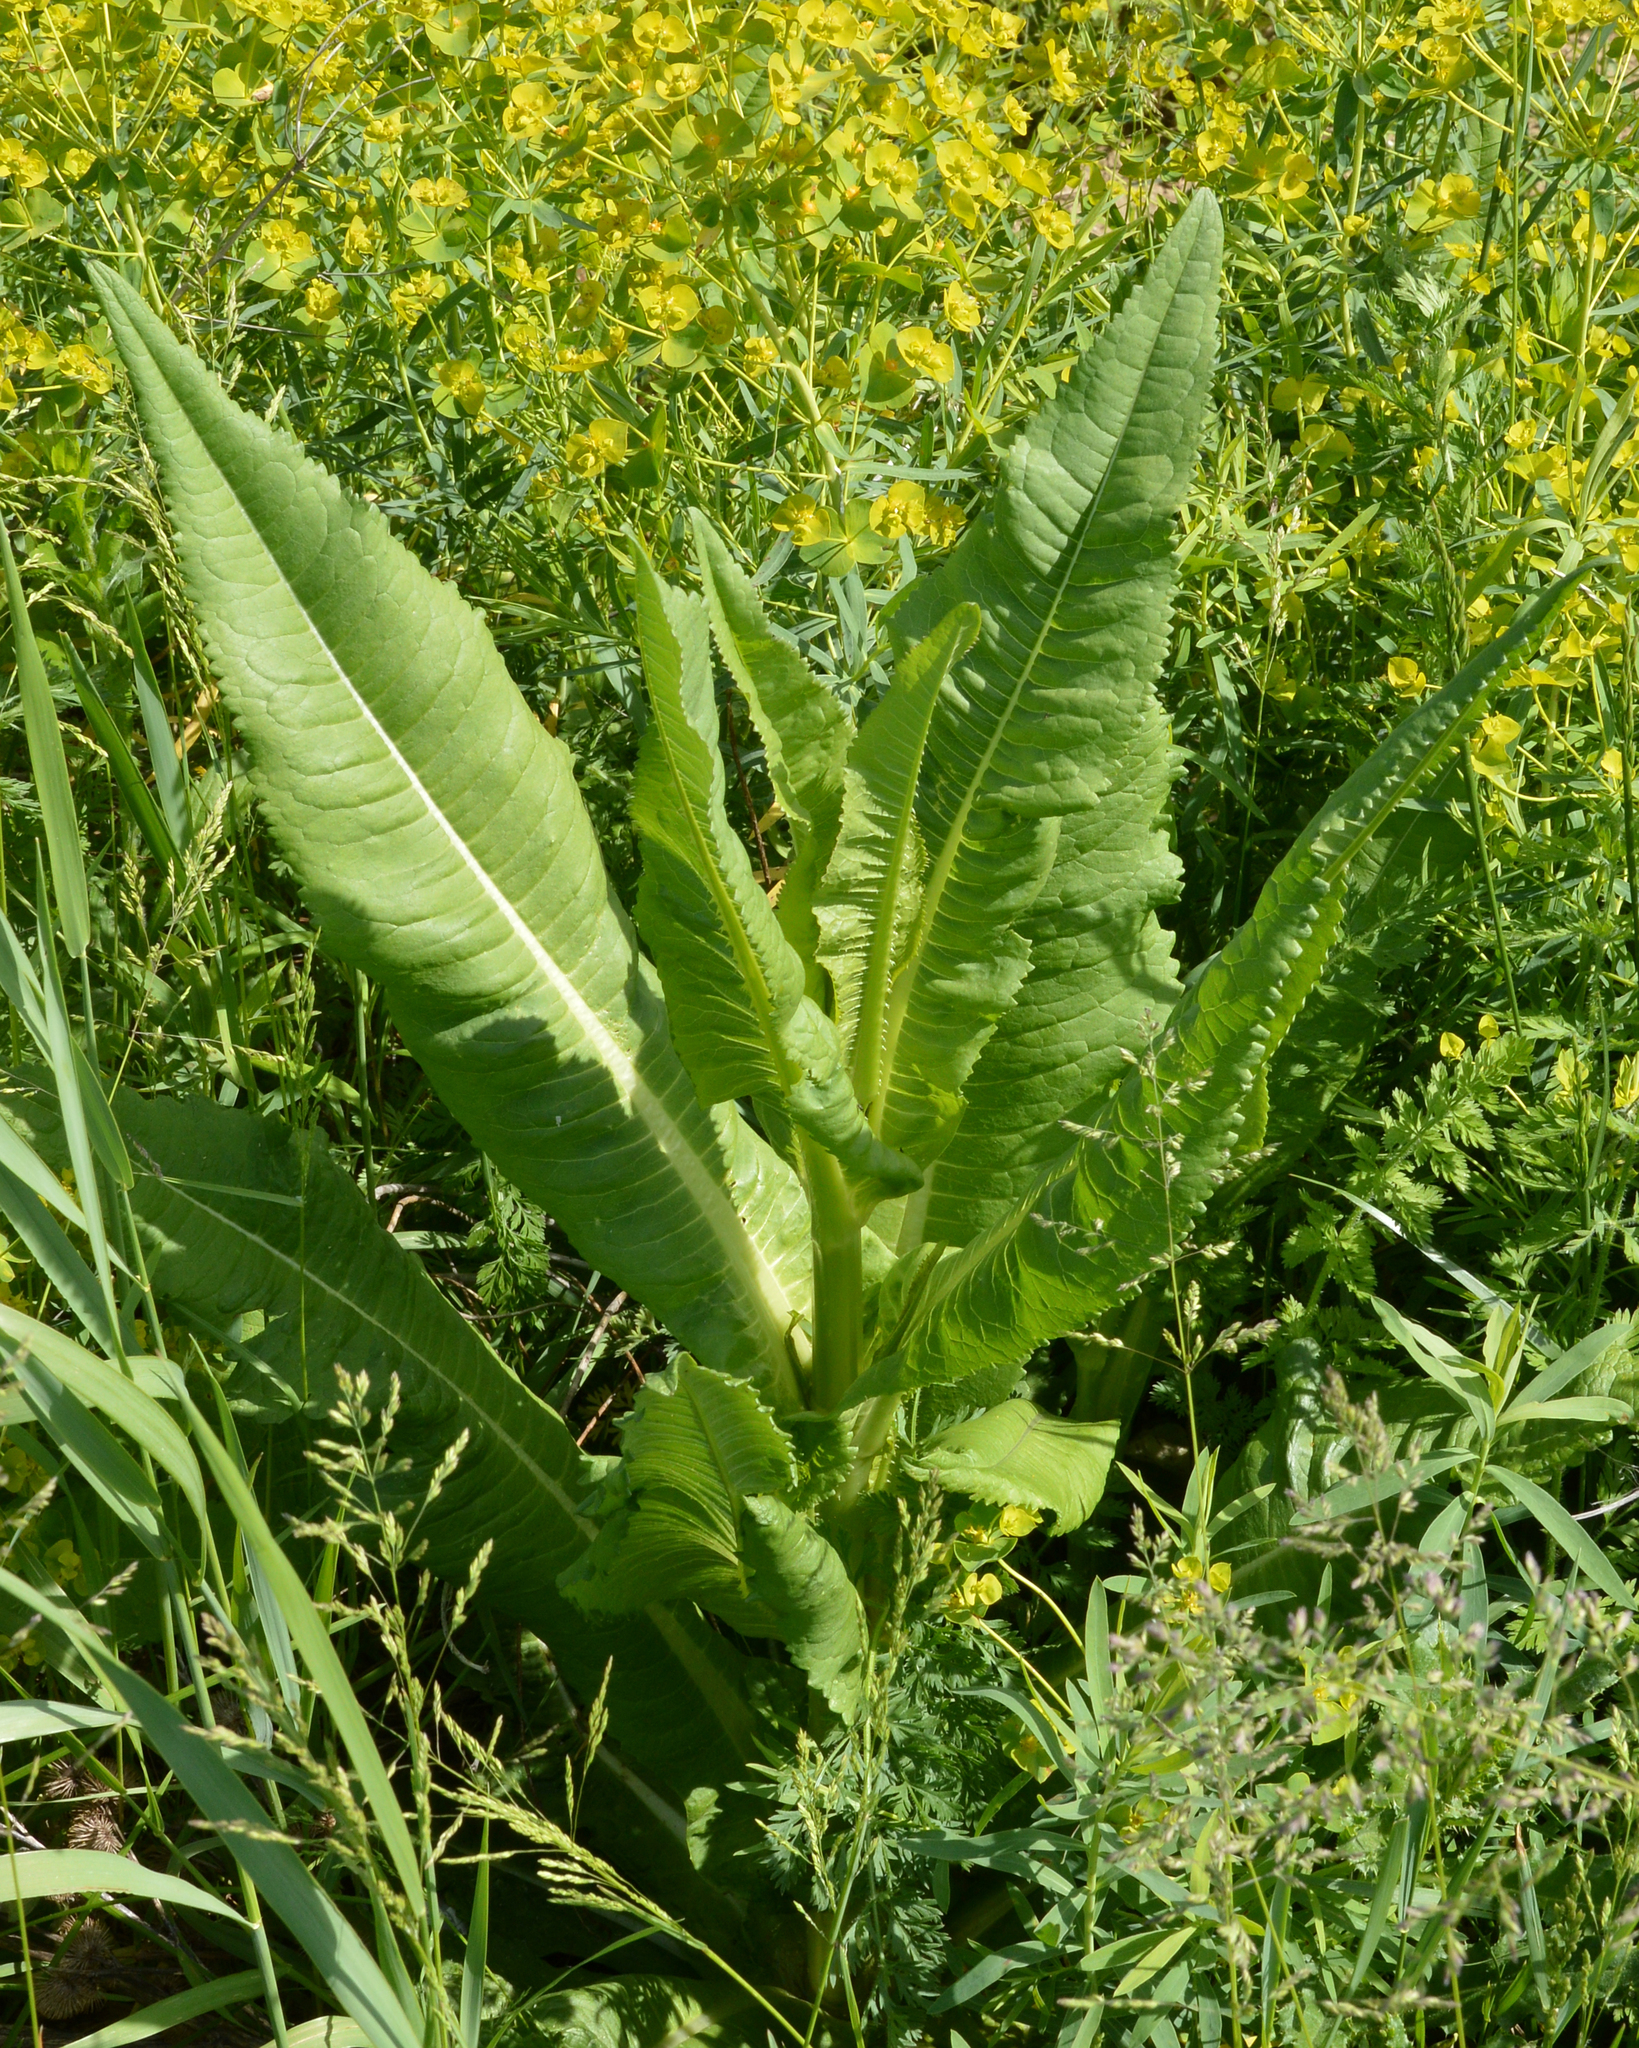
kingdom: Plantae
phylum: Tracheophyta
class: Magnoliopsida
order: Dipsacales
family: Caprifoliaceae
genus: Dipsacus
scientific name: Dipsacus fullonum
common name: Teasel
